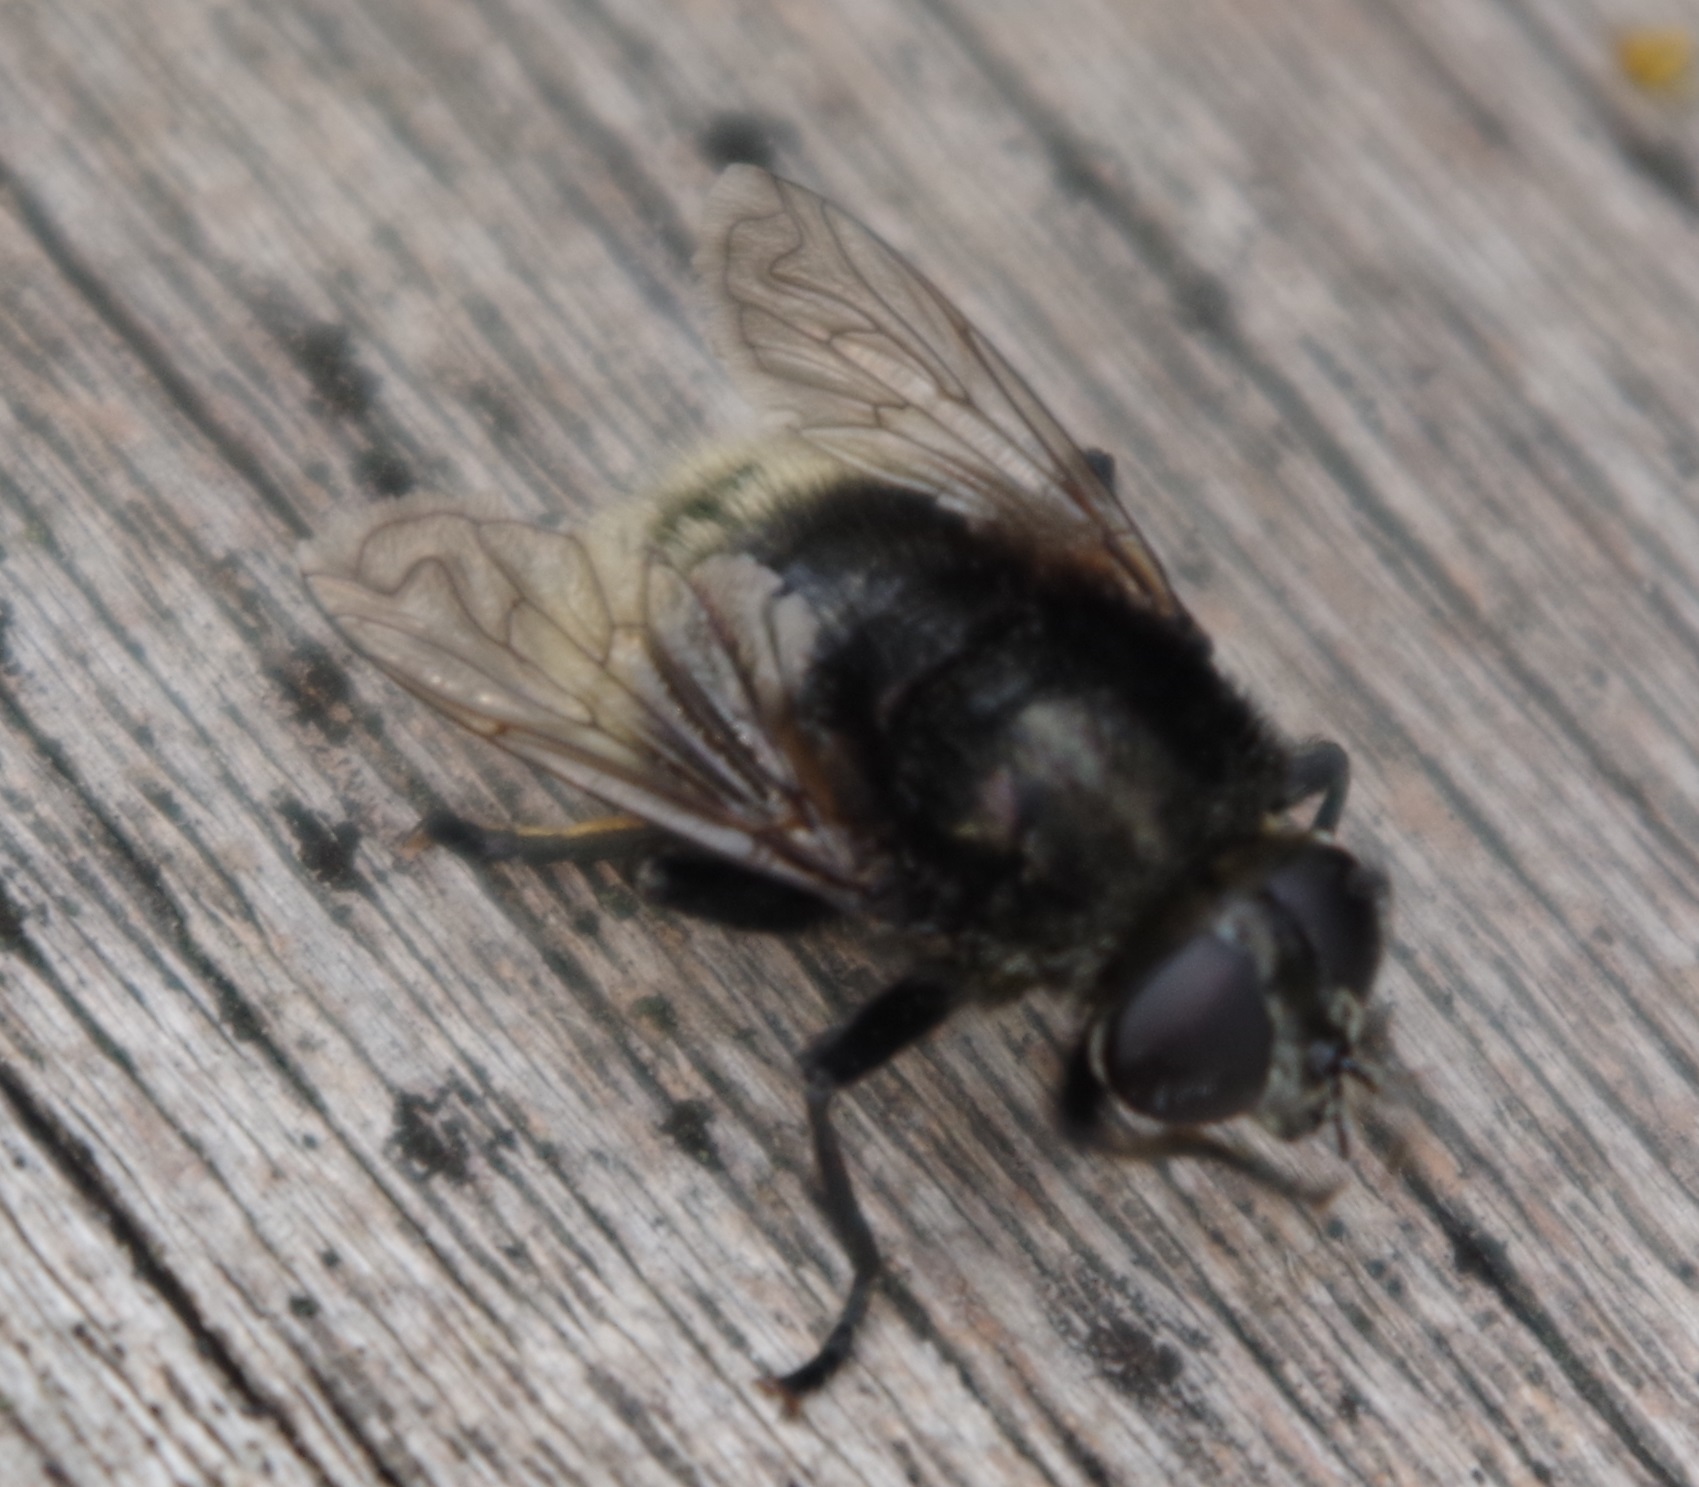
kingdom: Animalia
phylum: Arthropoda
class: Insecta
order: Diptera
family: Syrphidae
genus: Merodon
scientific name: Merodon equestris
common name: Greater bulb-fly
